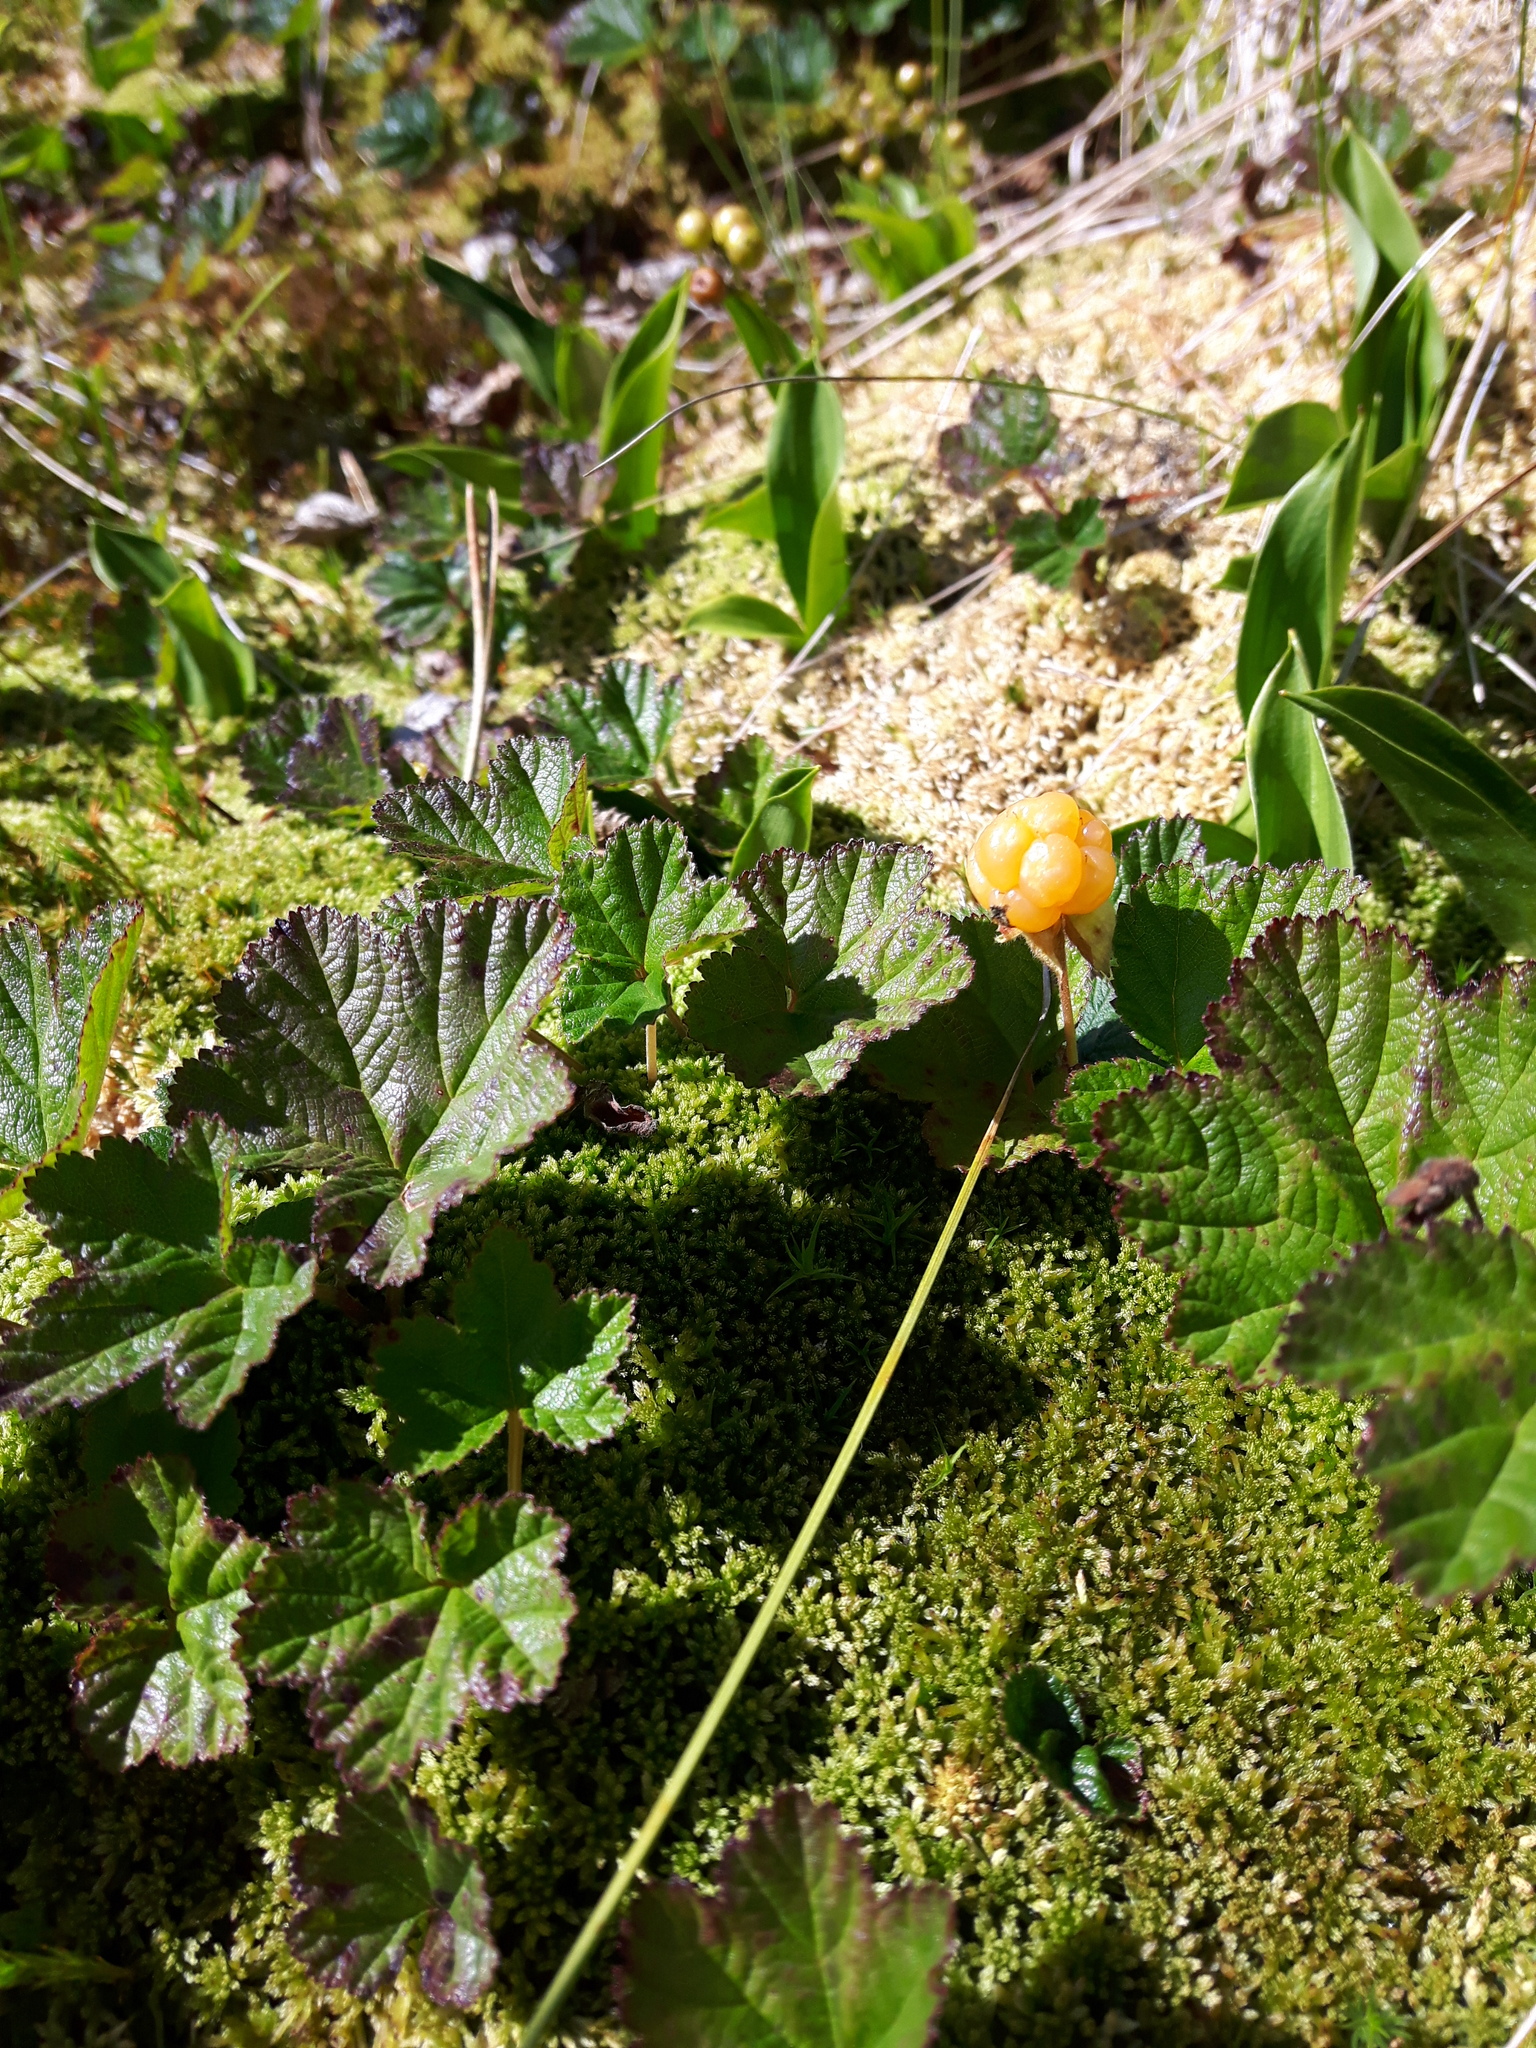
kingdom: Plantae
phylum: Tracheophyta
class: Magnoliopsida
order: Rosales
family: Rosaceae
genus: Rubus
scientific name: Rubus chamaemorus
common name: Cloudberry
